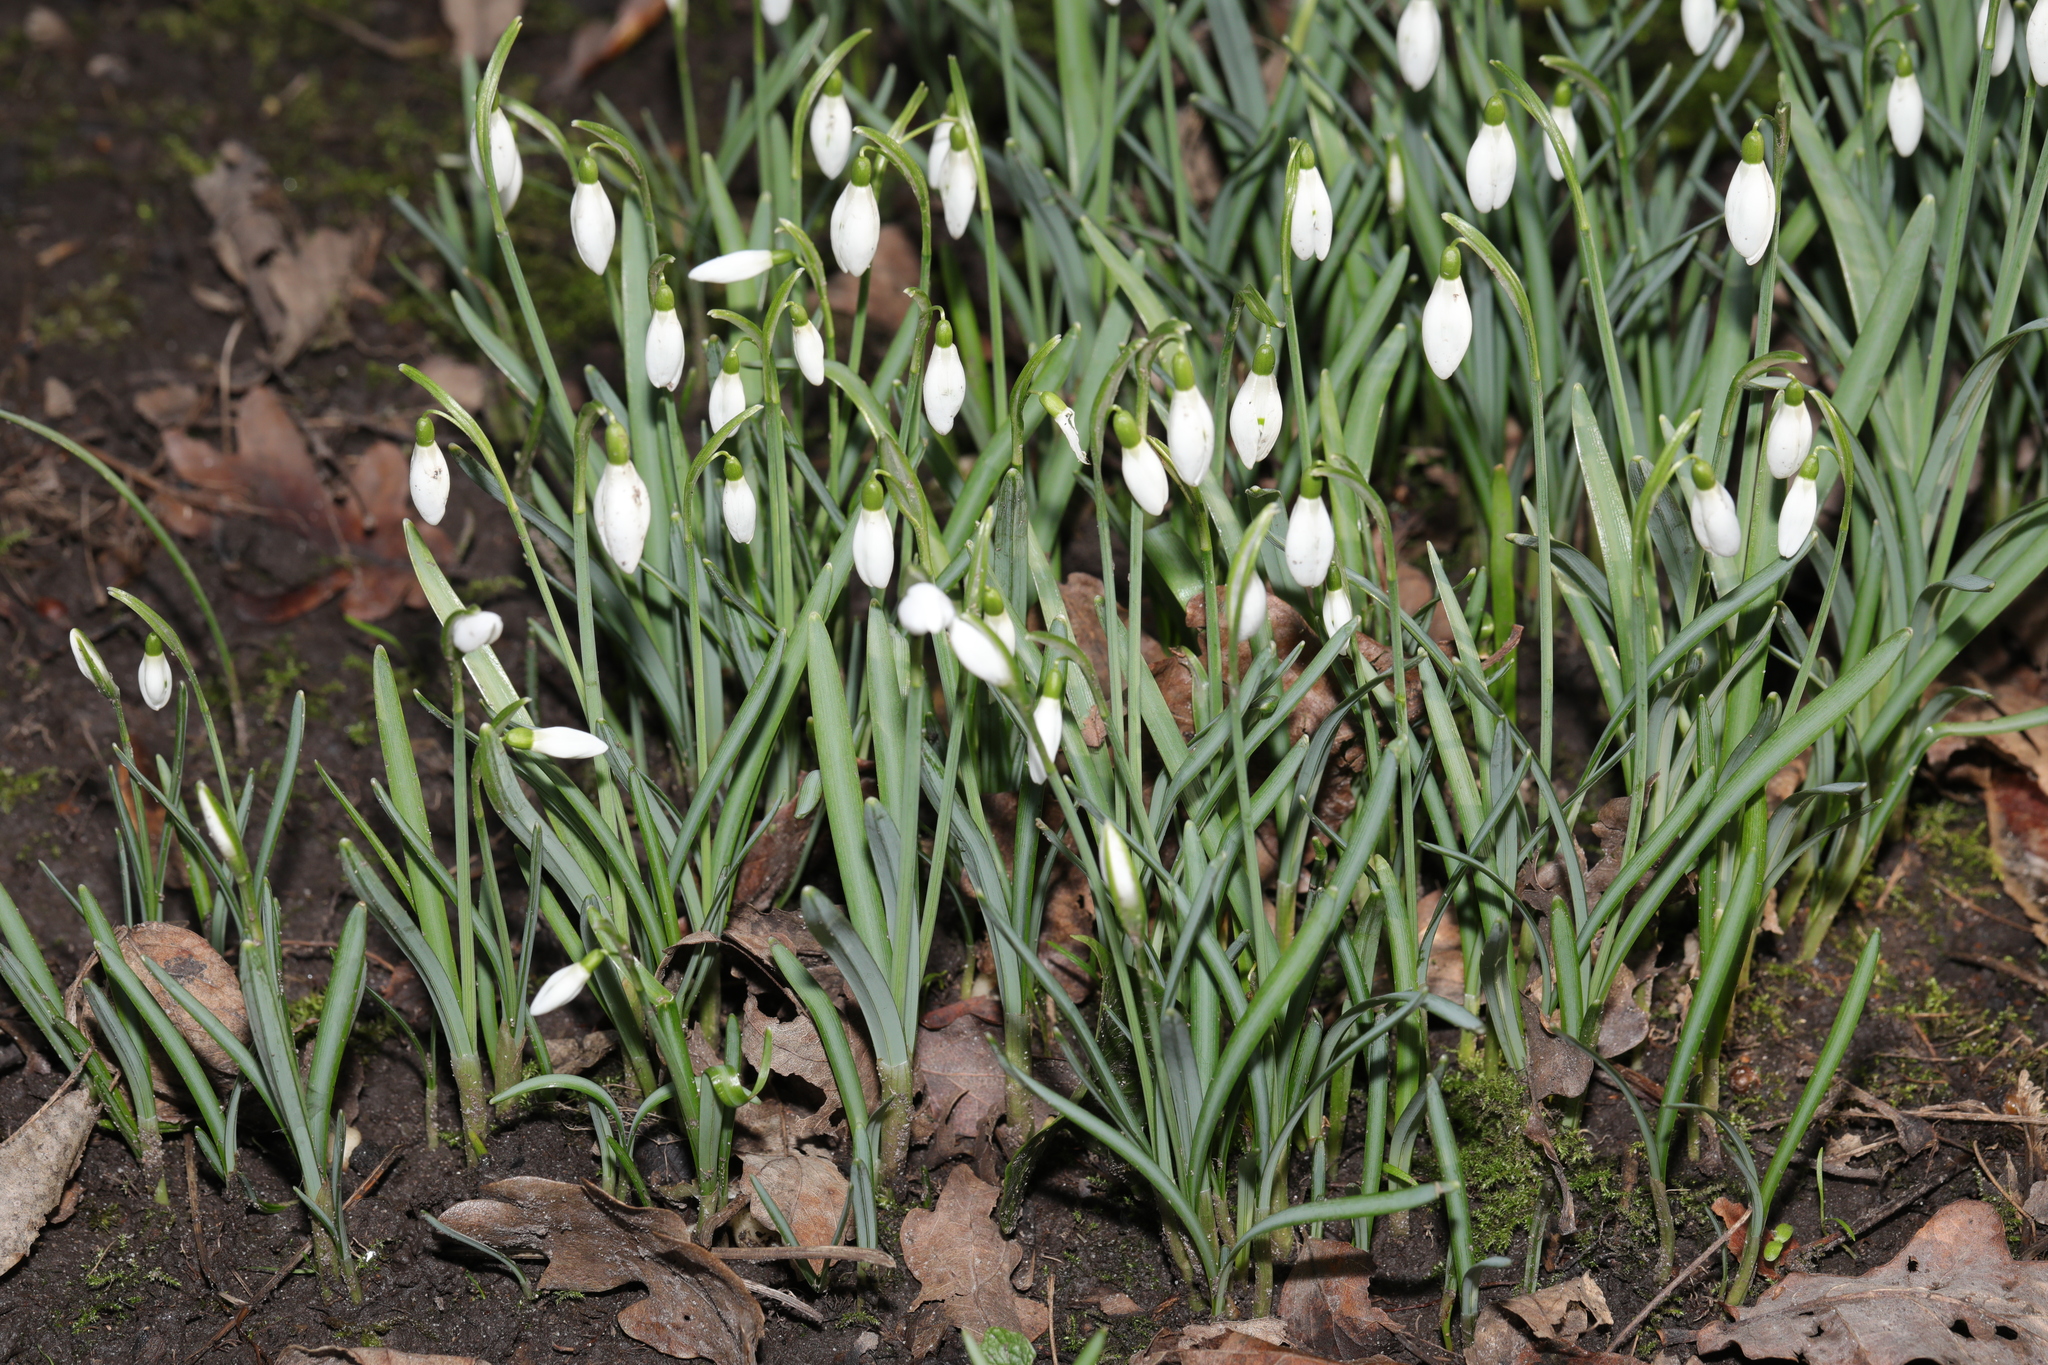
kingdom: Plantae
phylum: Tracheophyta
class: Liliopsida
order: Asparagales
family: Amaryllidaceae
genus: Galanthus
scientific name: Galanthus nivalis
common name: Snowdrop
